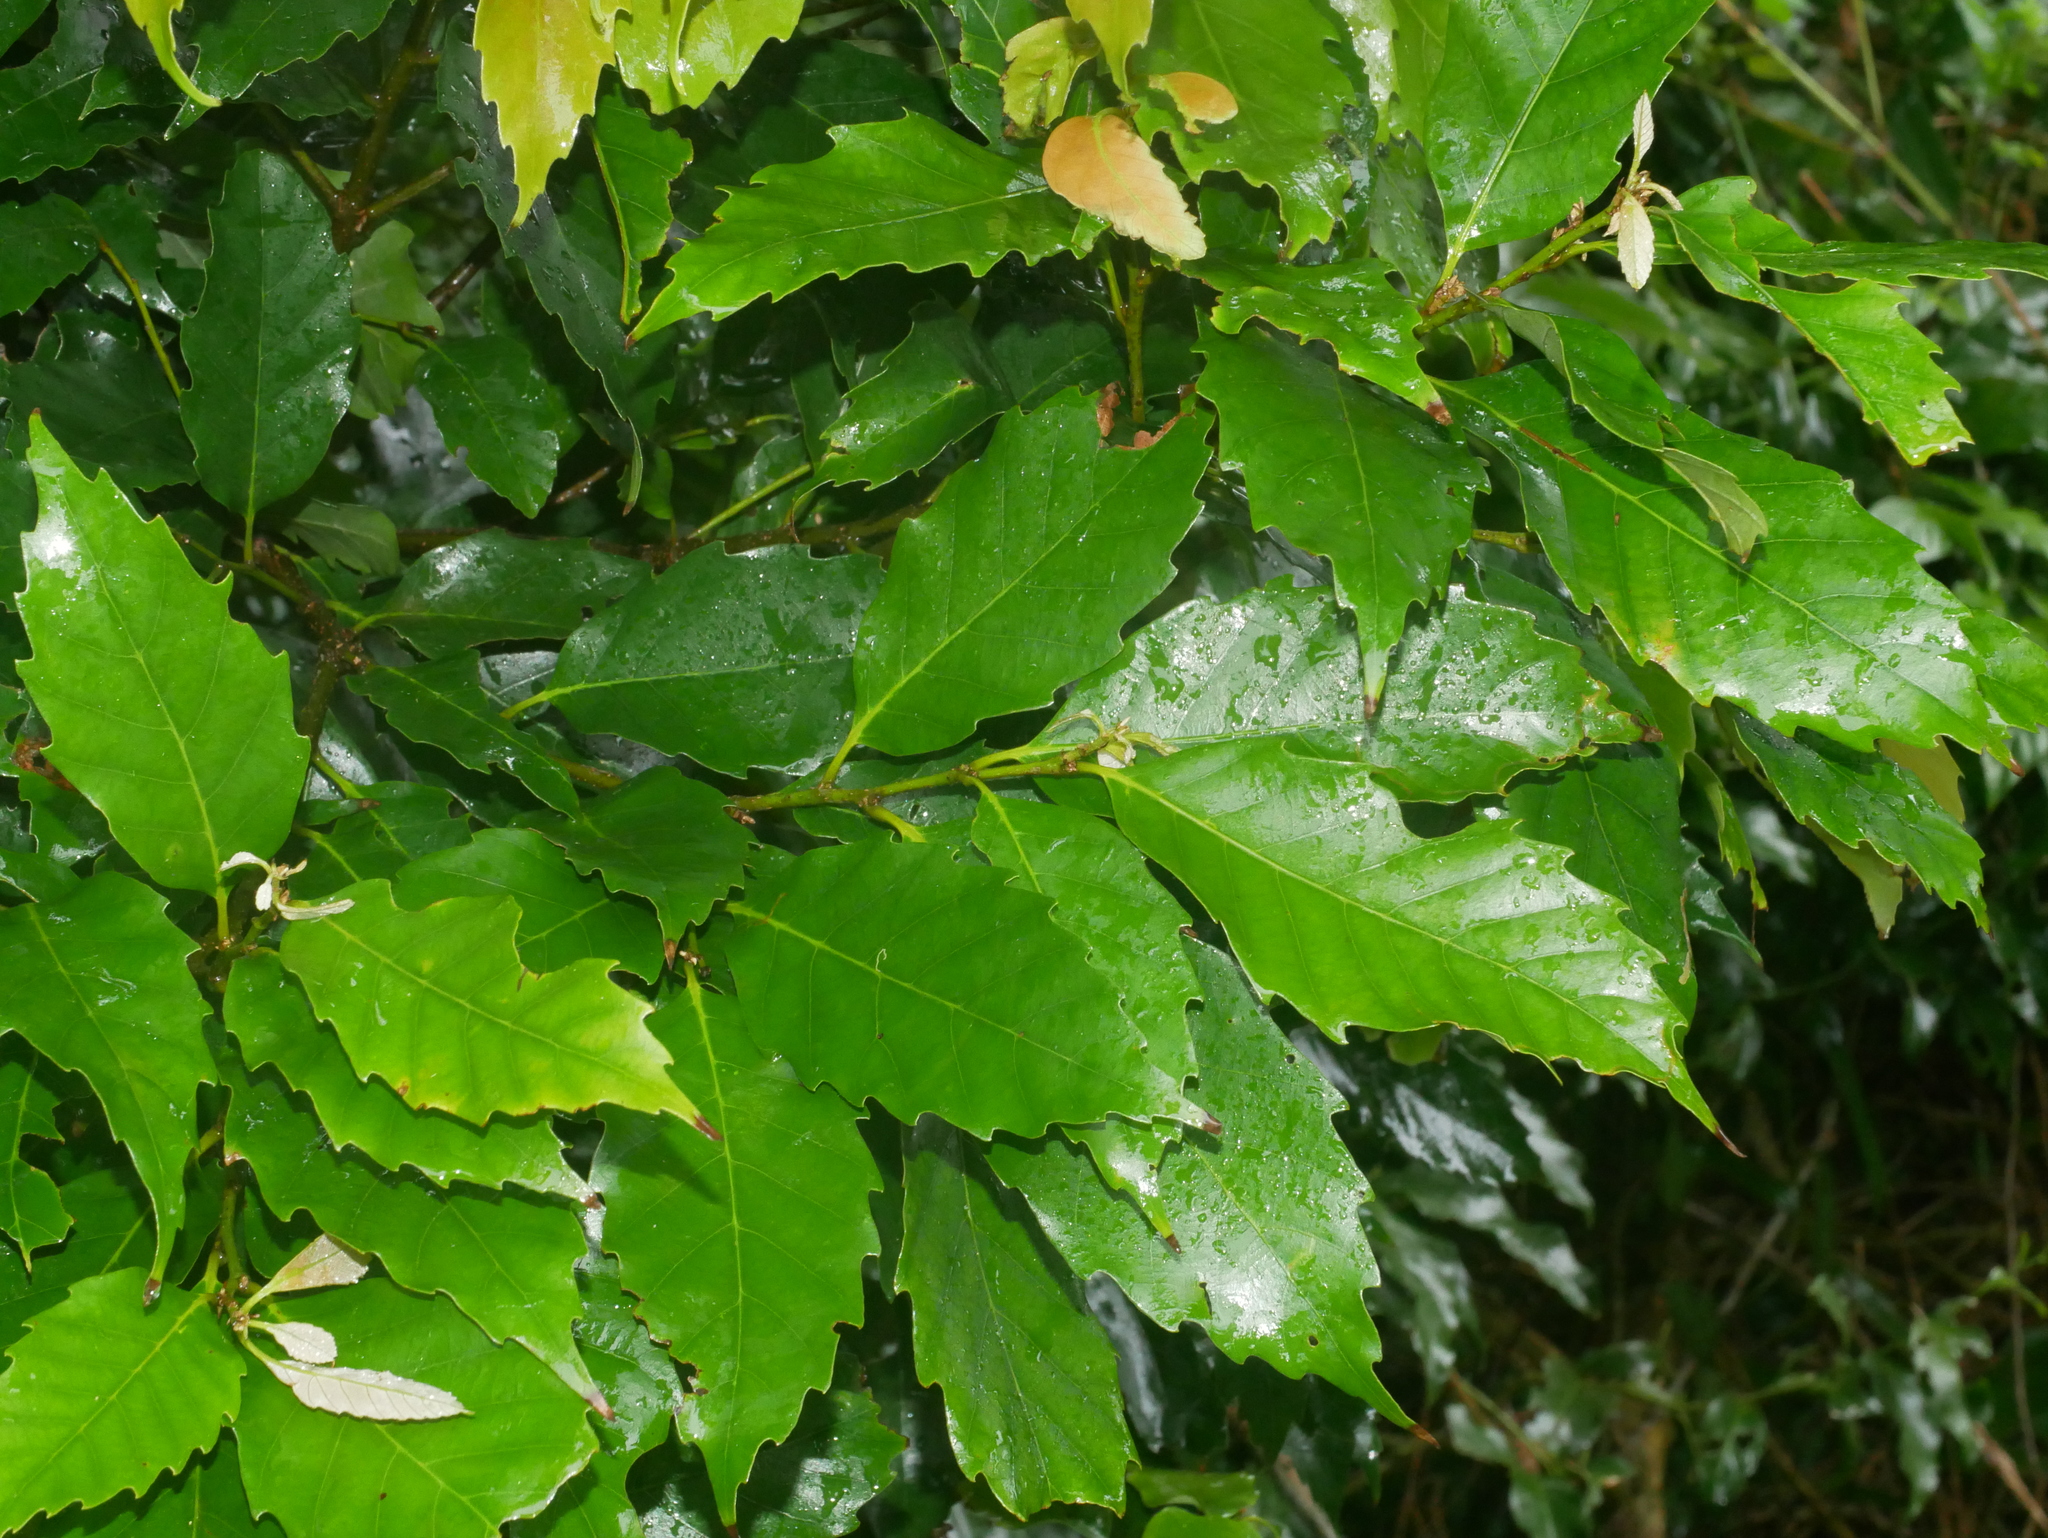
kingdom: Plantae
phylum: Tracheophyta
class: Magnoliopsida
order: Fagales
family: Fagaceae
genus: Castanopsis
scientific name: Castanopsis formosana
